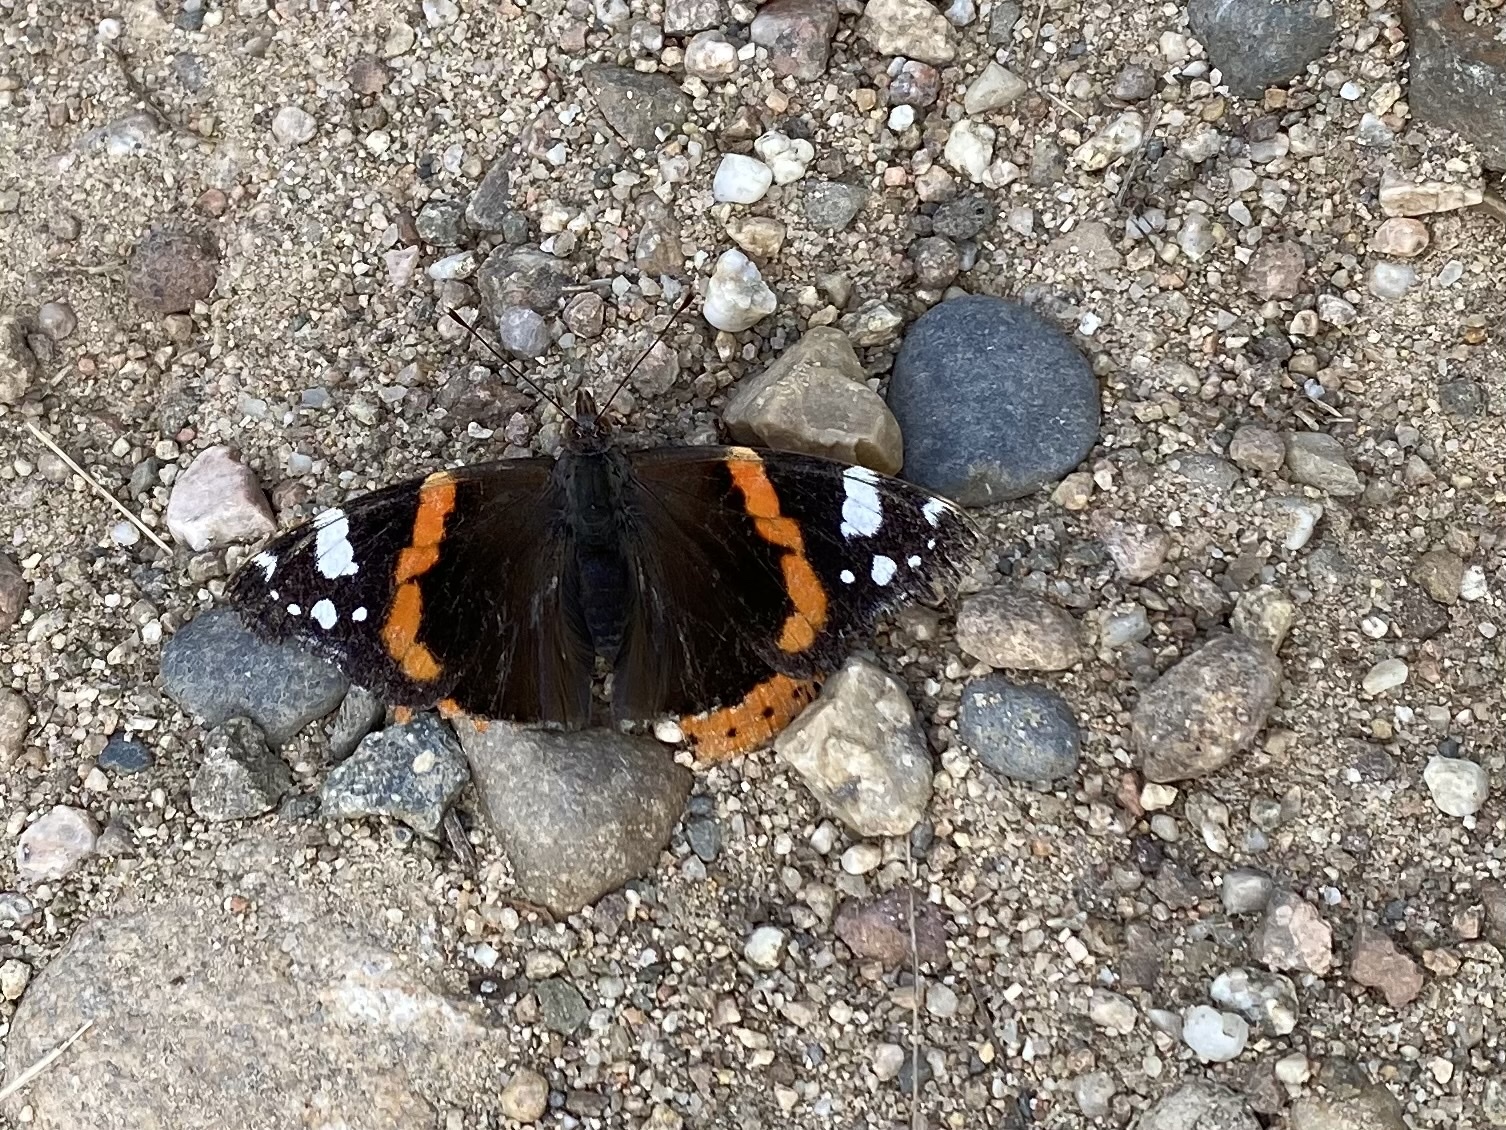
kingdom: Animalia
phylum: Arthropoda
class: Insecta
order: Lepidoptera
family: Nymphalidae
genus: Vanessa
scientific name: Vanessa atalanta
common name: Red admiral
